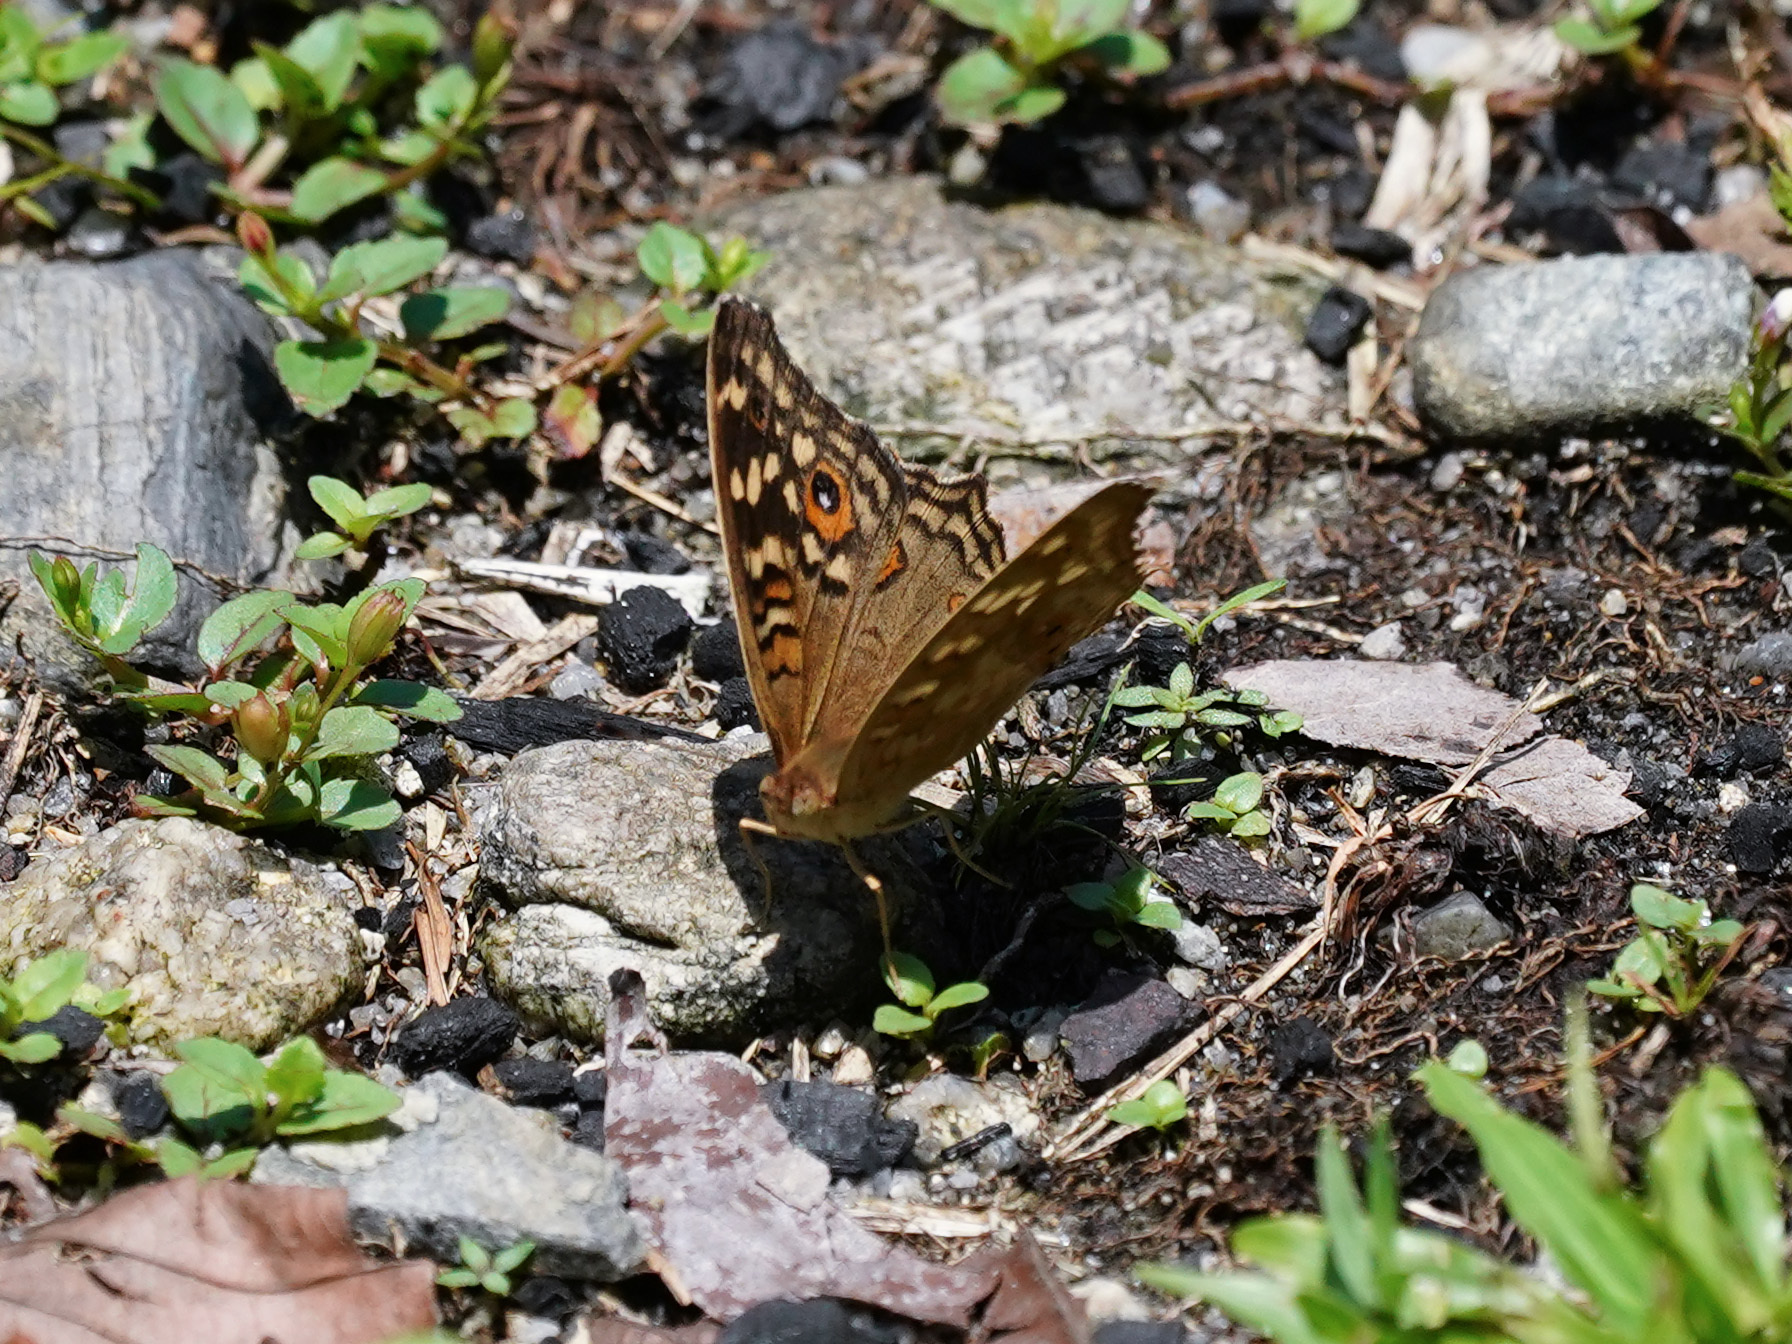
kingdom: Animalia
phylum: Arthropoda
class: Insecta
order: Lepidoptera
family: Nymphalidae
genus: Junonia
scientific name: Junonia lemonias
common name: Lemon pansy
